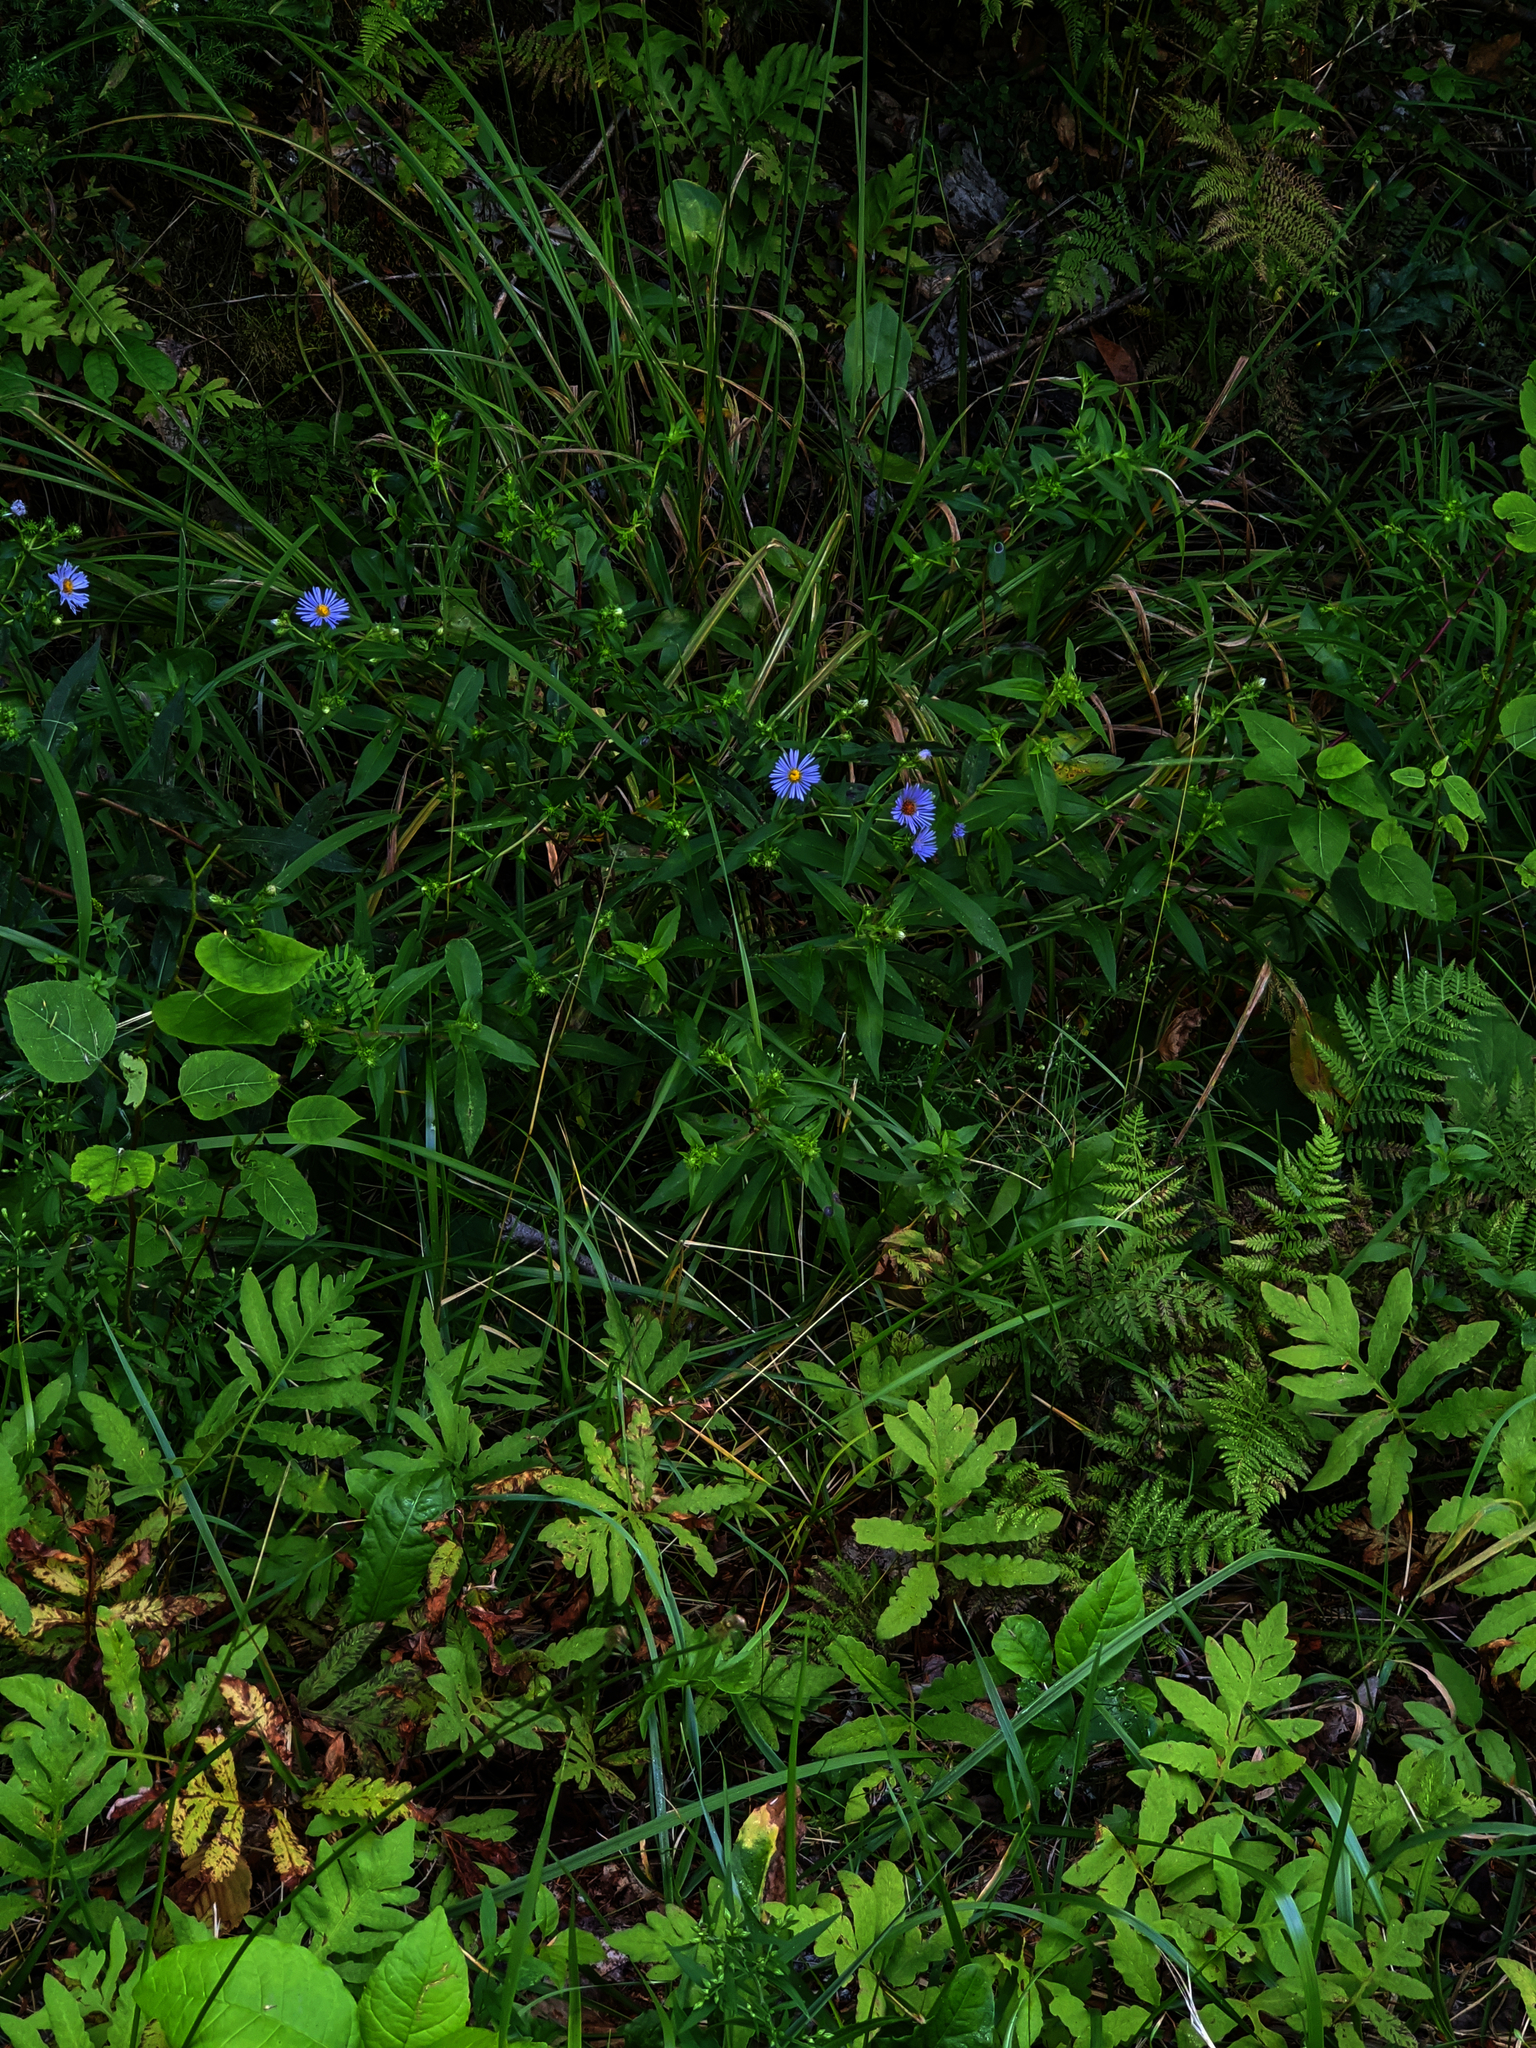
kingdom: Plantae
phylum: Tracheophyta
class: Polypodiopsida
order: Polypodiales
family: Onocleaceae
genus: Onoclea
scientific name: Onoclea sensibilis
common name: Sensitive fern
